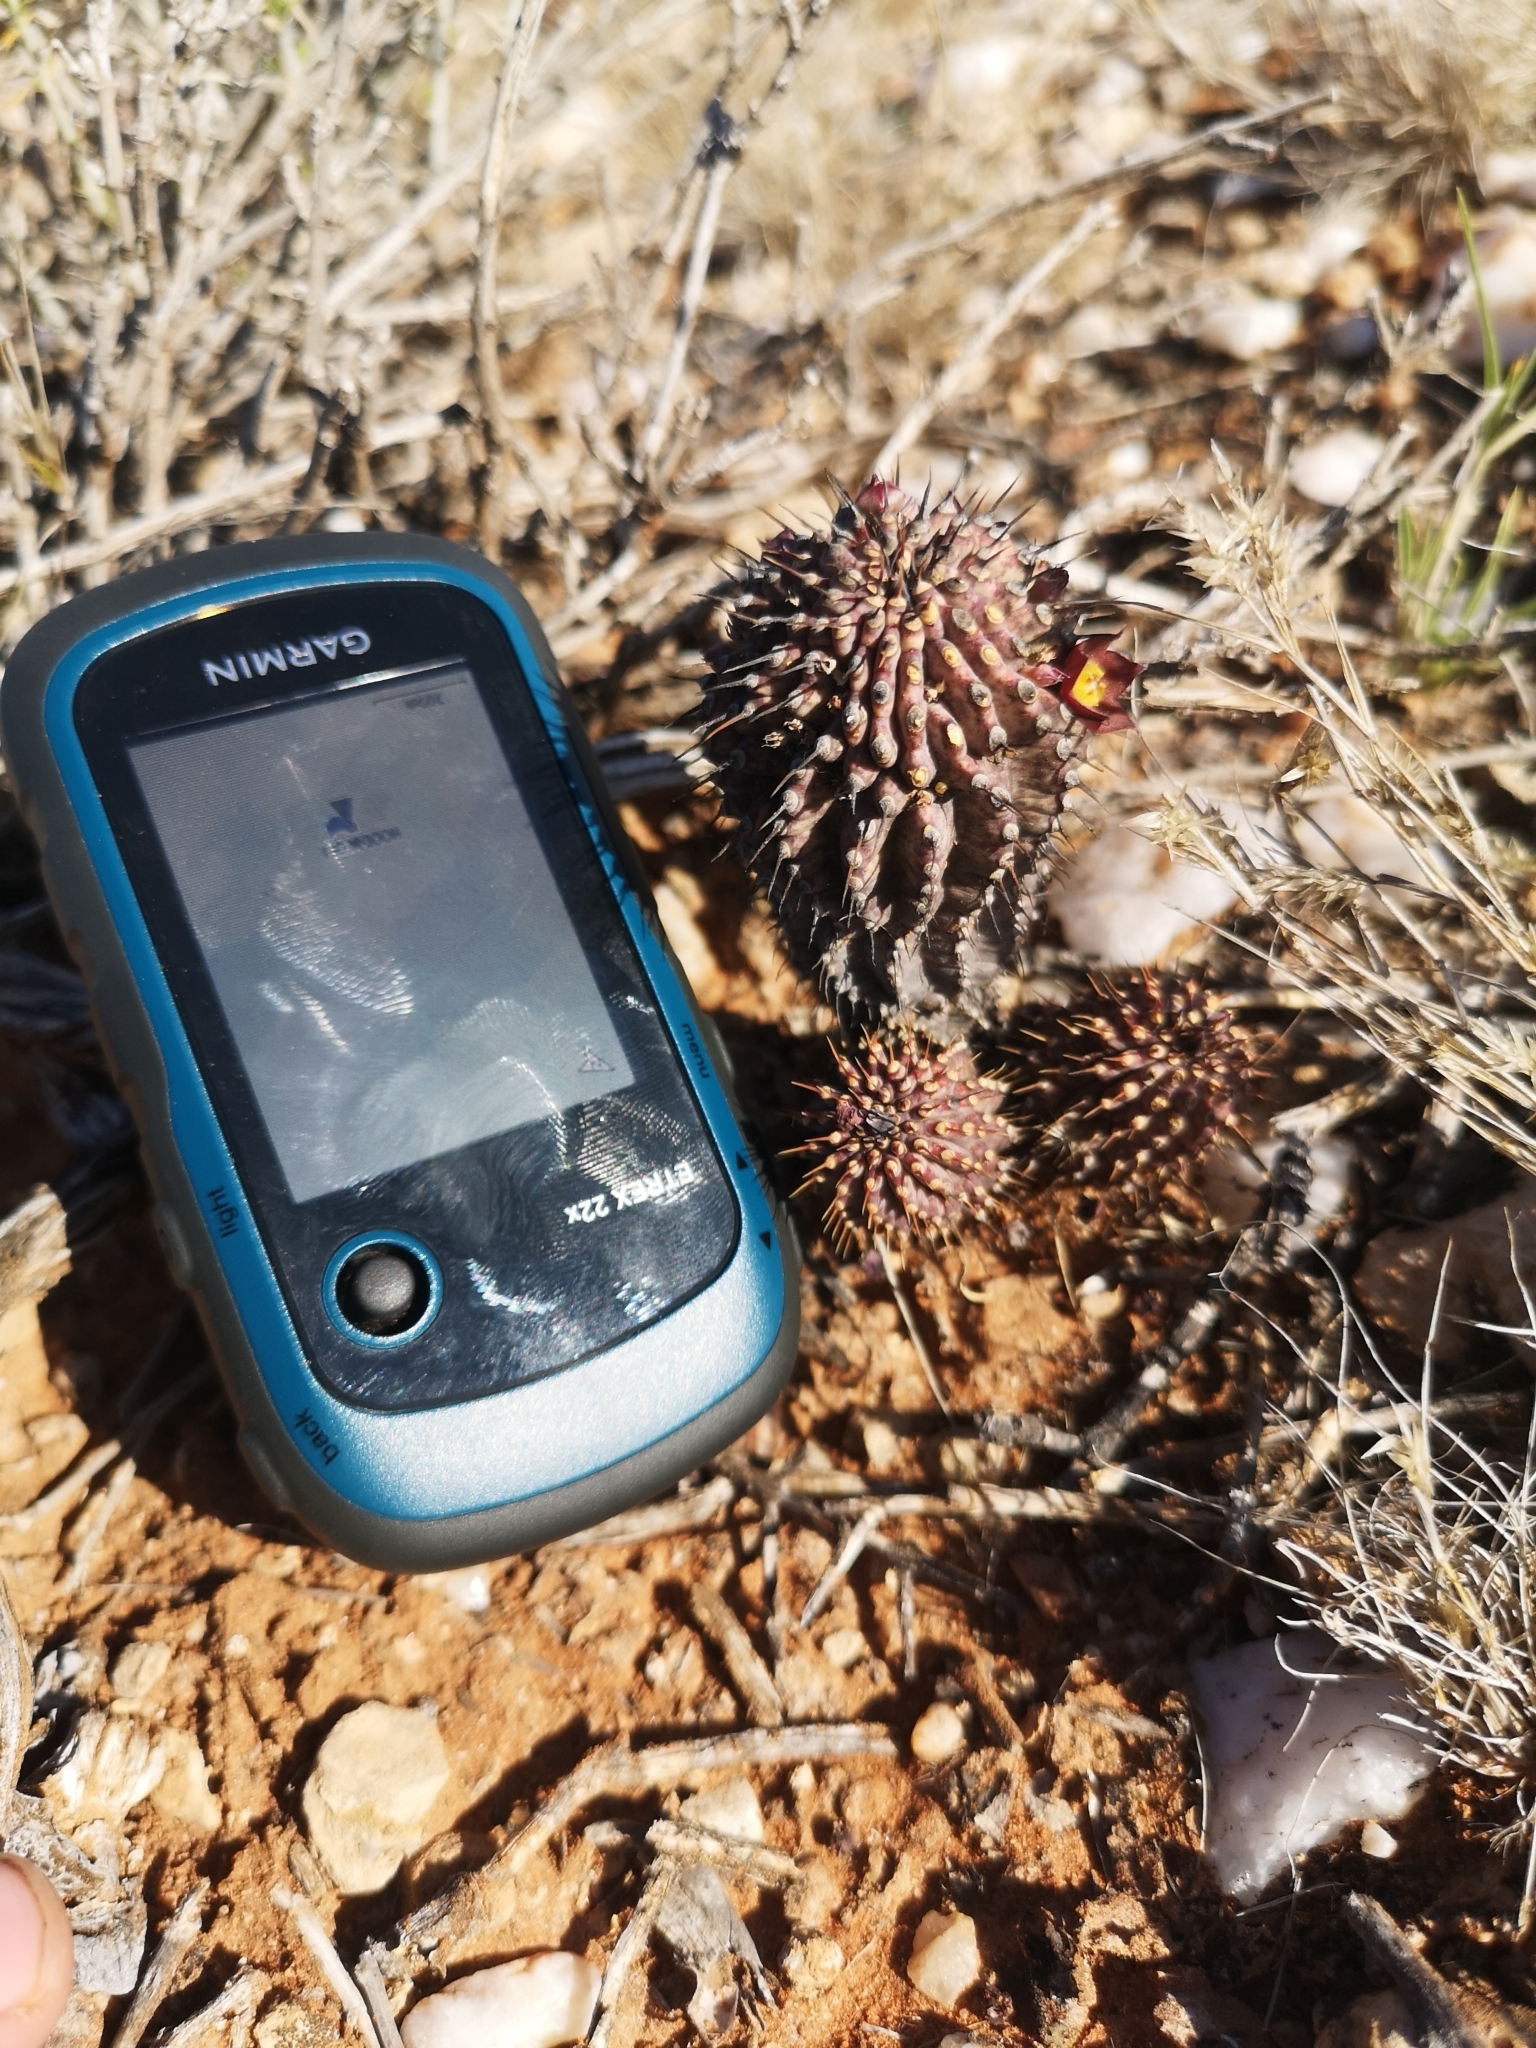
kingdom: Plantae
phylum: Tracheophyta
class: Magnoliopsida
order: Gentianales
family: Apocynaceae
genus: Ceropegia
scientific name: Ceropegia officinalis
